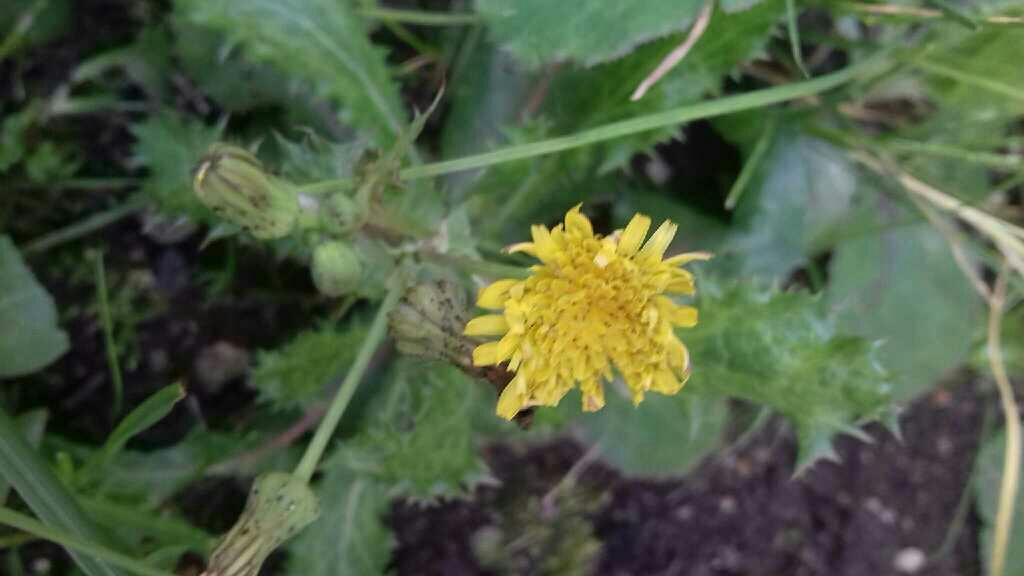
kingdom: Plantae
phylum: Tracheophyta
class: Magnoliopsida
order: Asterales
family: Asteraceae
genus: Sonchus
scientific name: Sonchus asper
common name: Prickly sow-thistle
